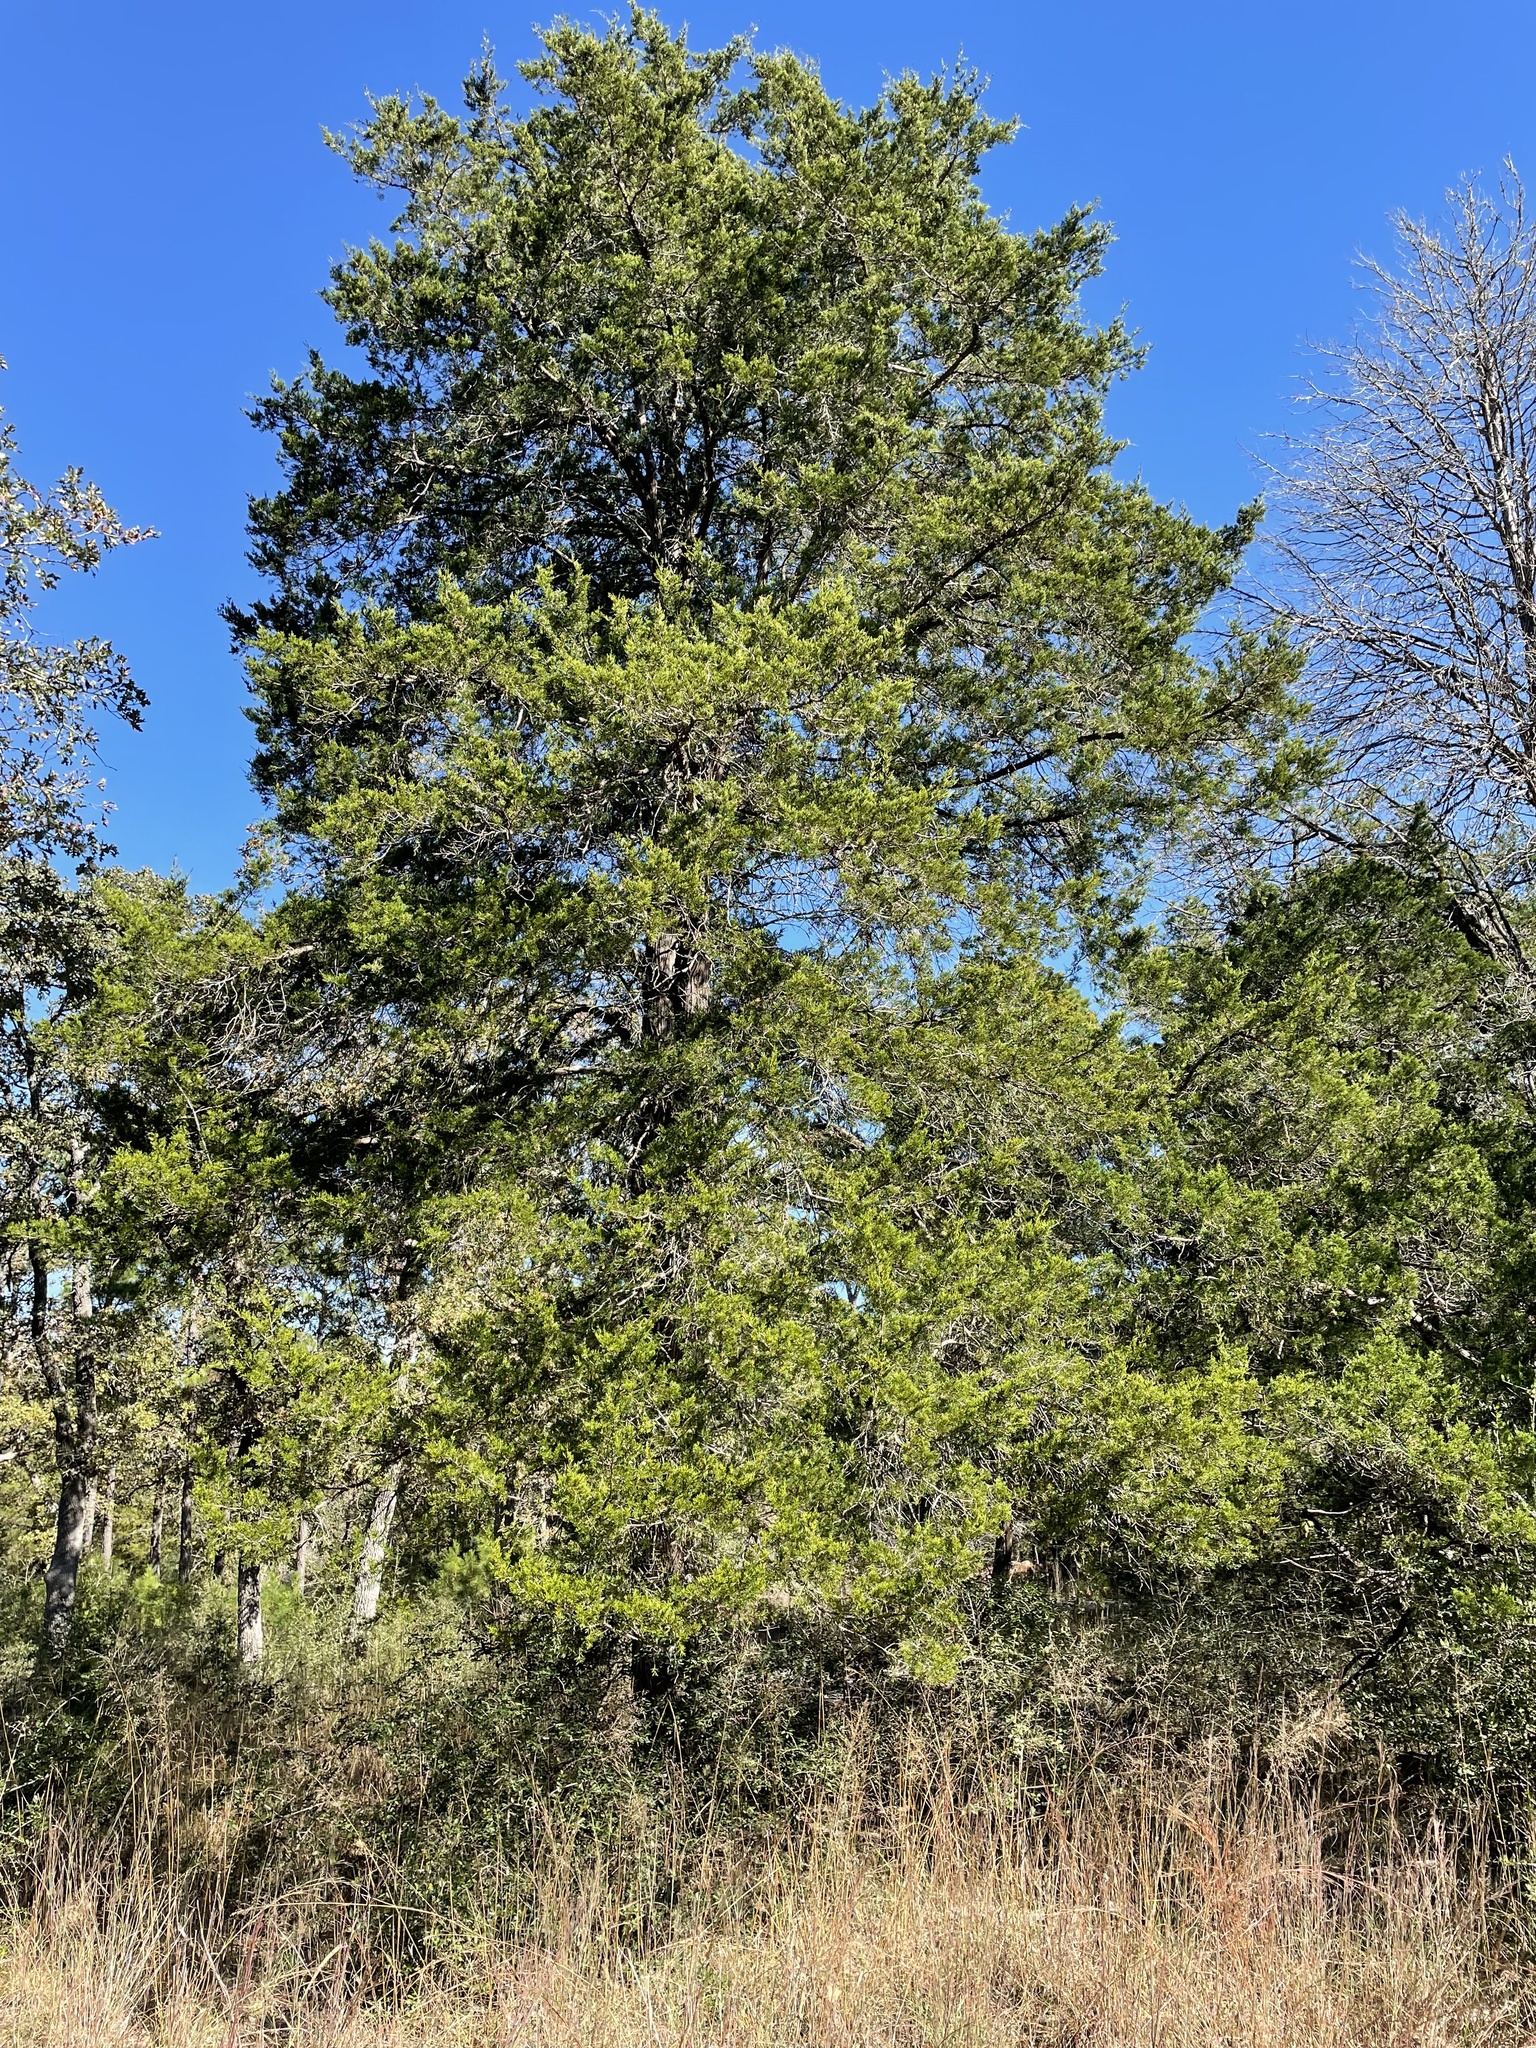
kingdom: Plantae
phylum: Tracheophyta
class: Pinopsida
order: Pinales
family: Cupressaceae
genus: Juniperus
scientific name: Juniperus virginiana
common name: Red juniper
